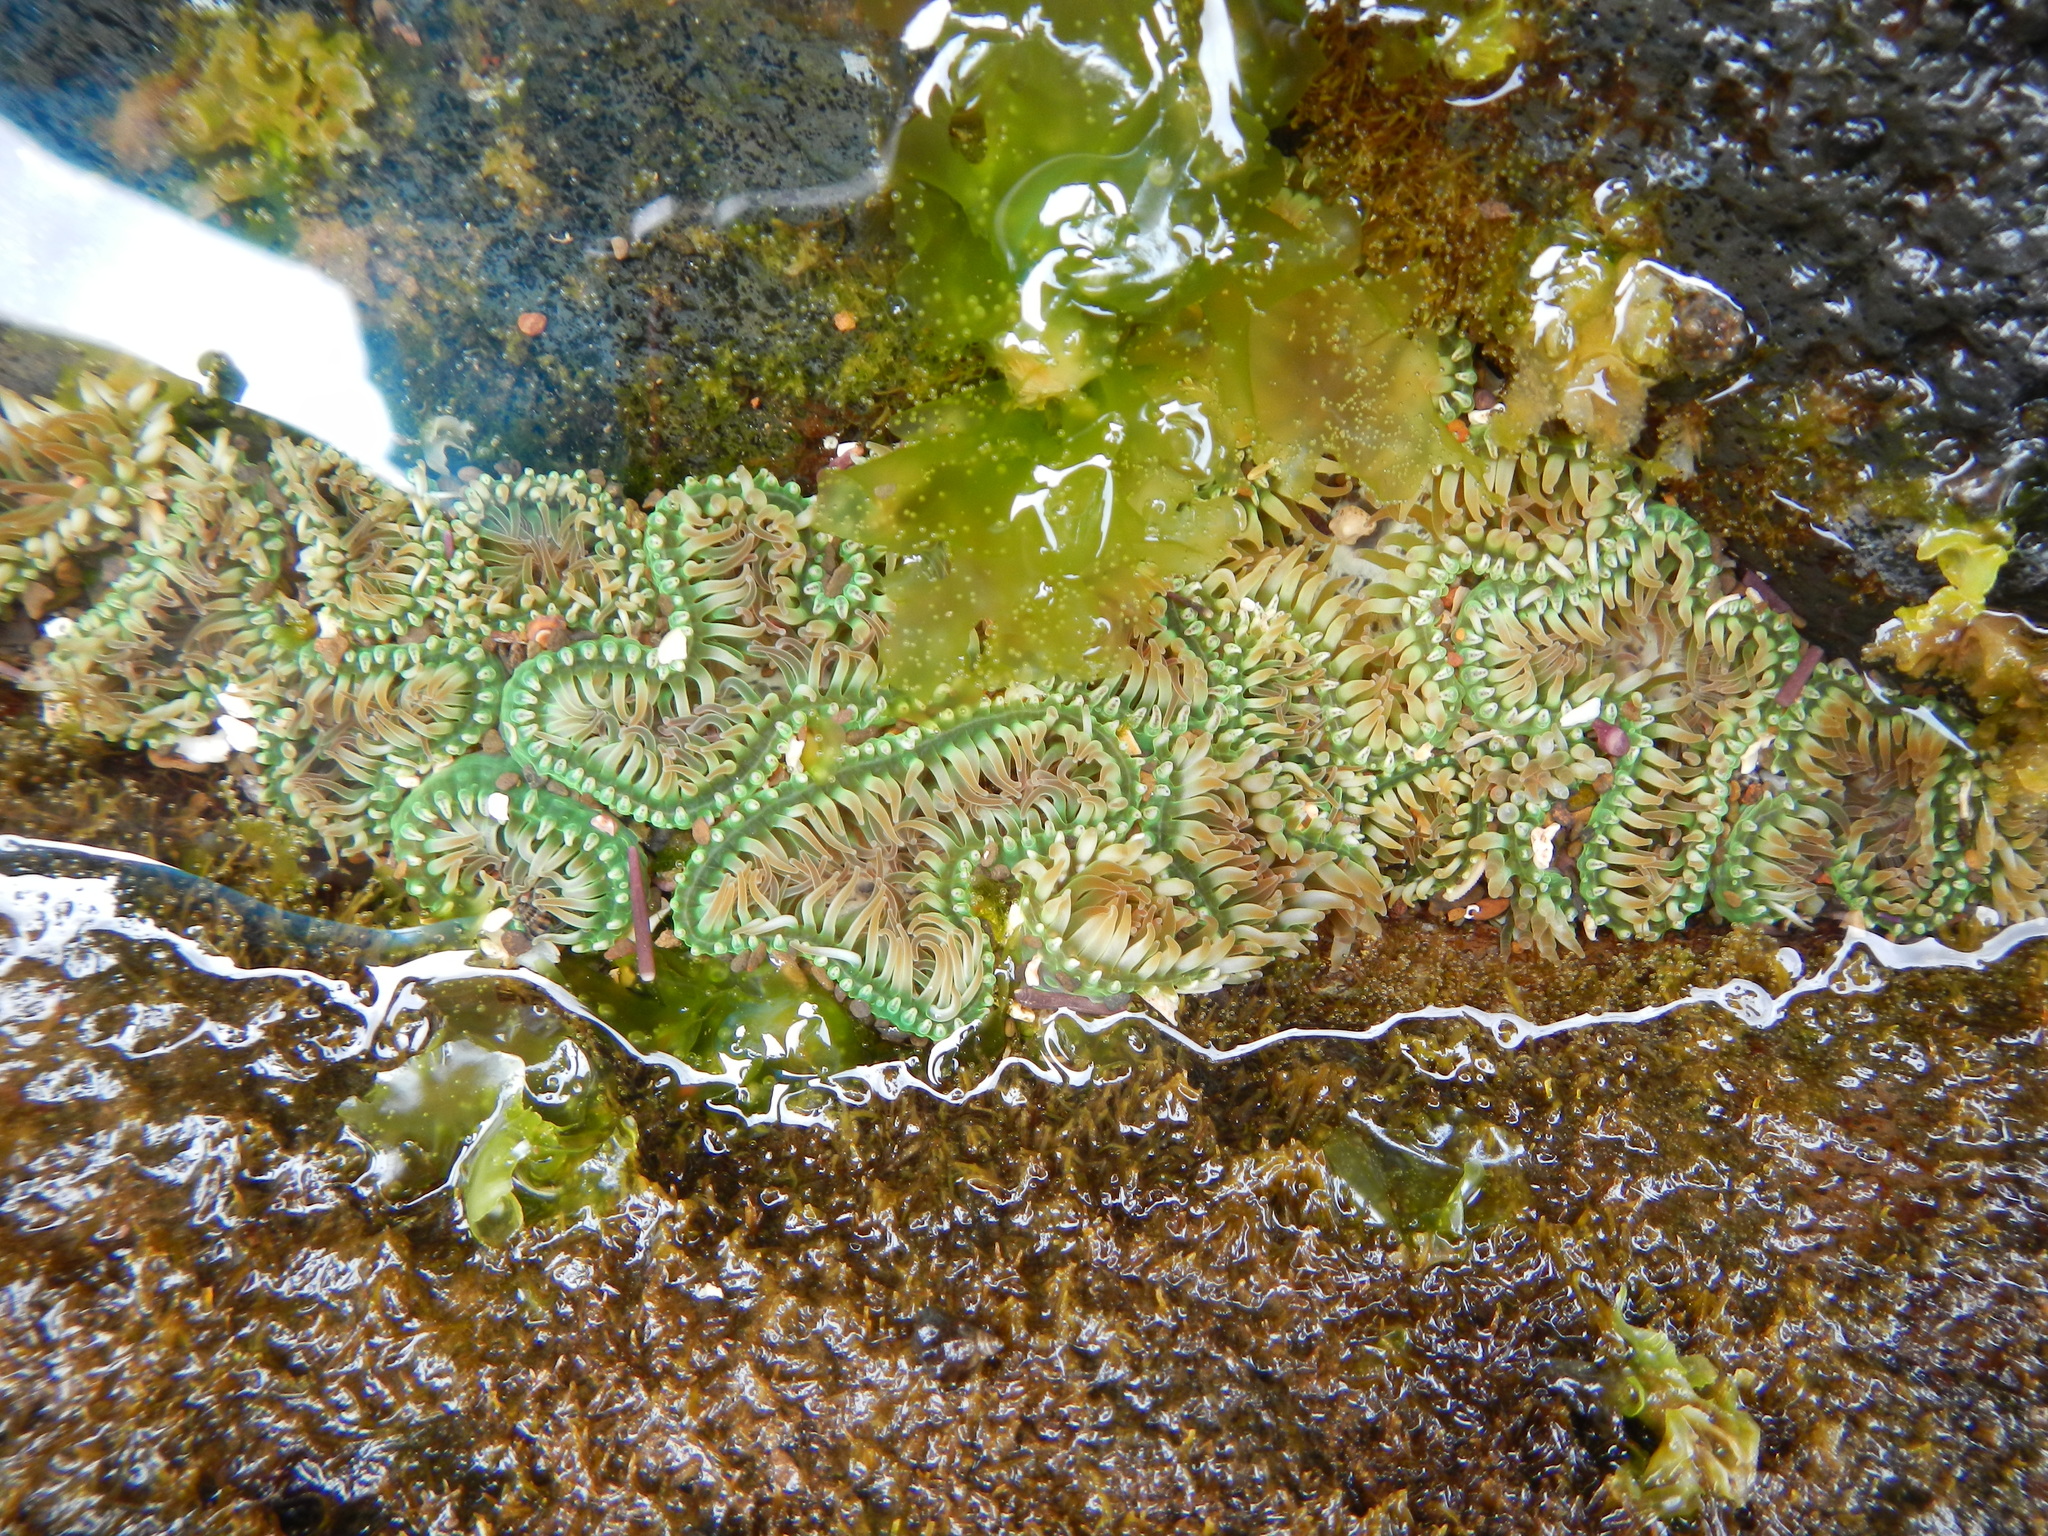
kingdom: Animalia
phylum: Cnidaria
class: Anthozoa
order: Actiniaria
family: Actiniidae
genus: Gyractis
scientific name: Gyractis sesere
